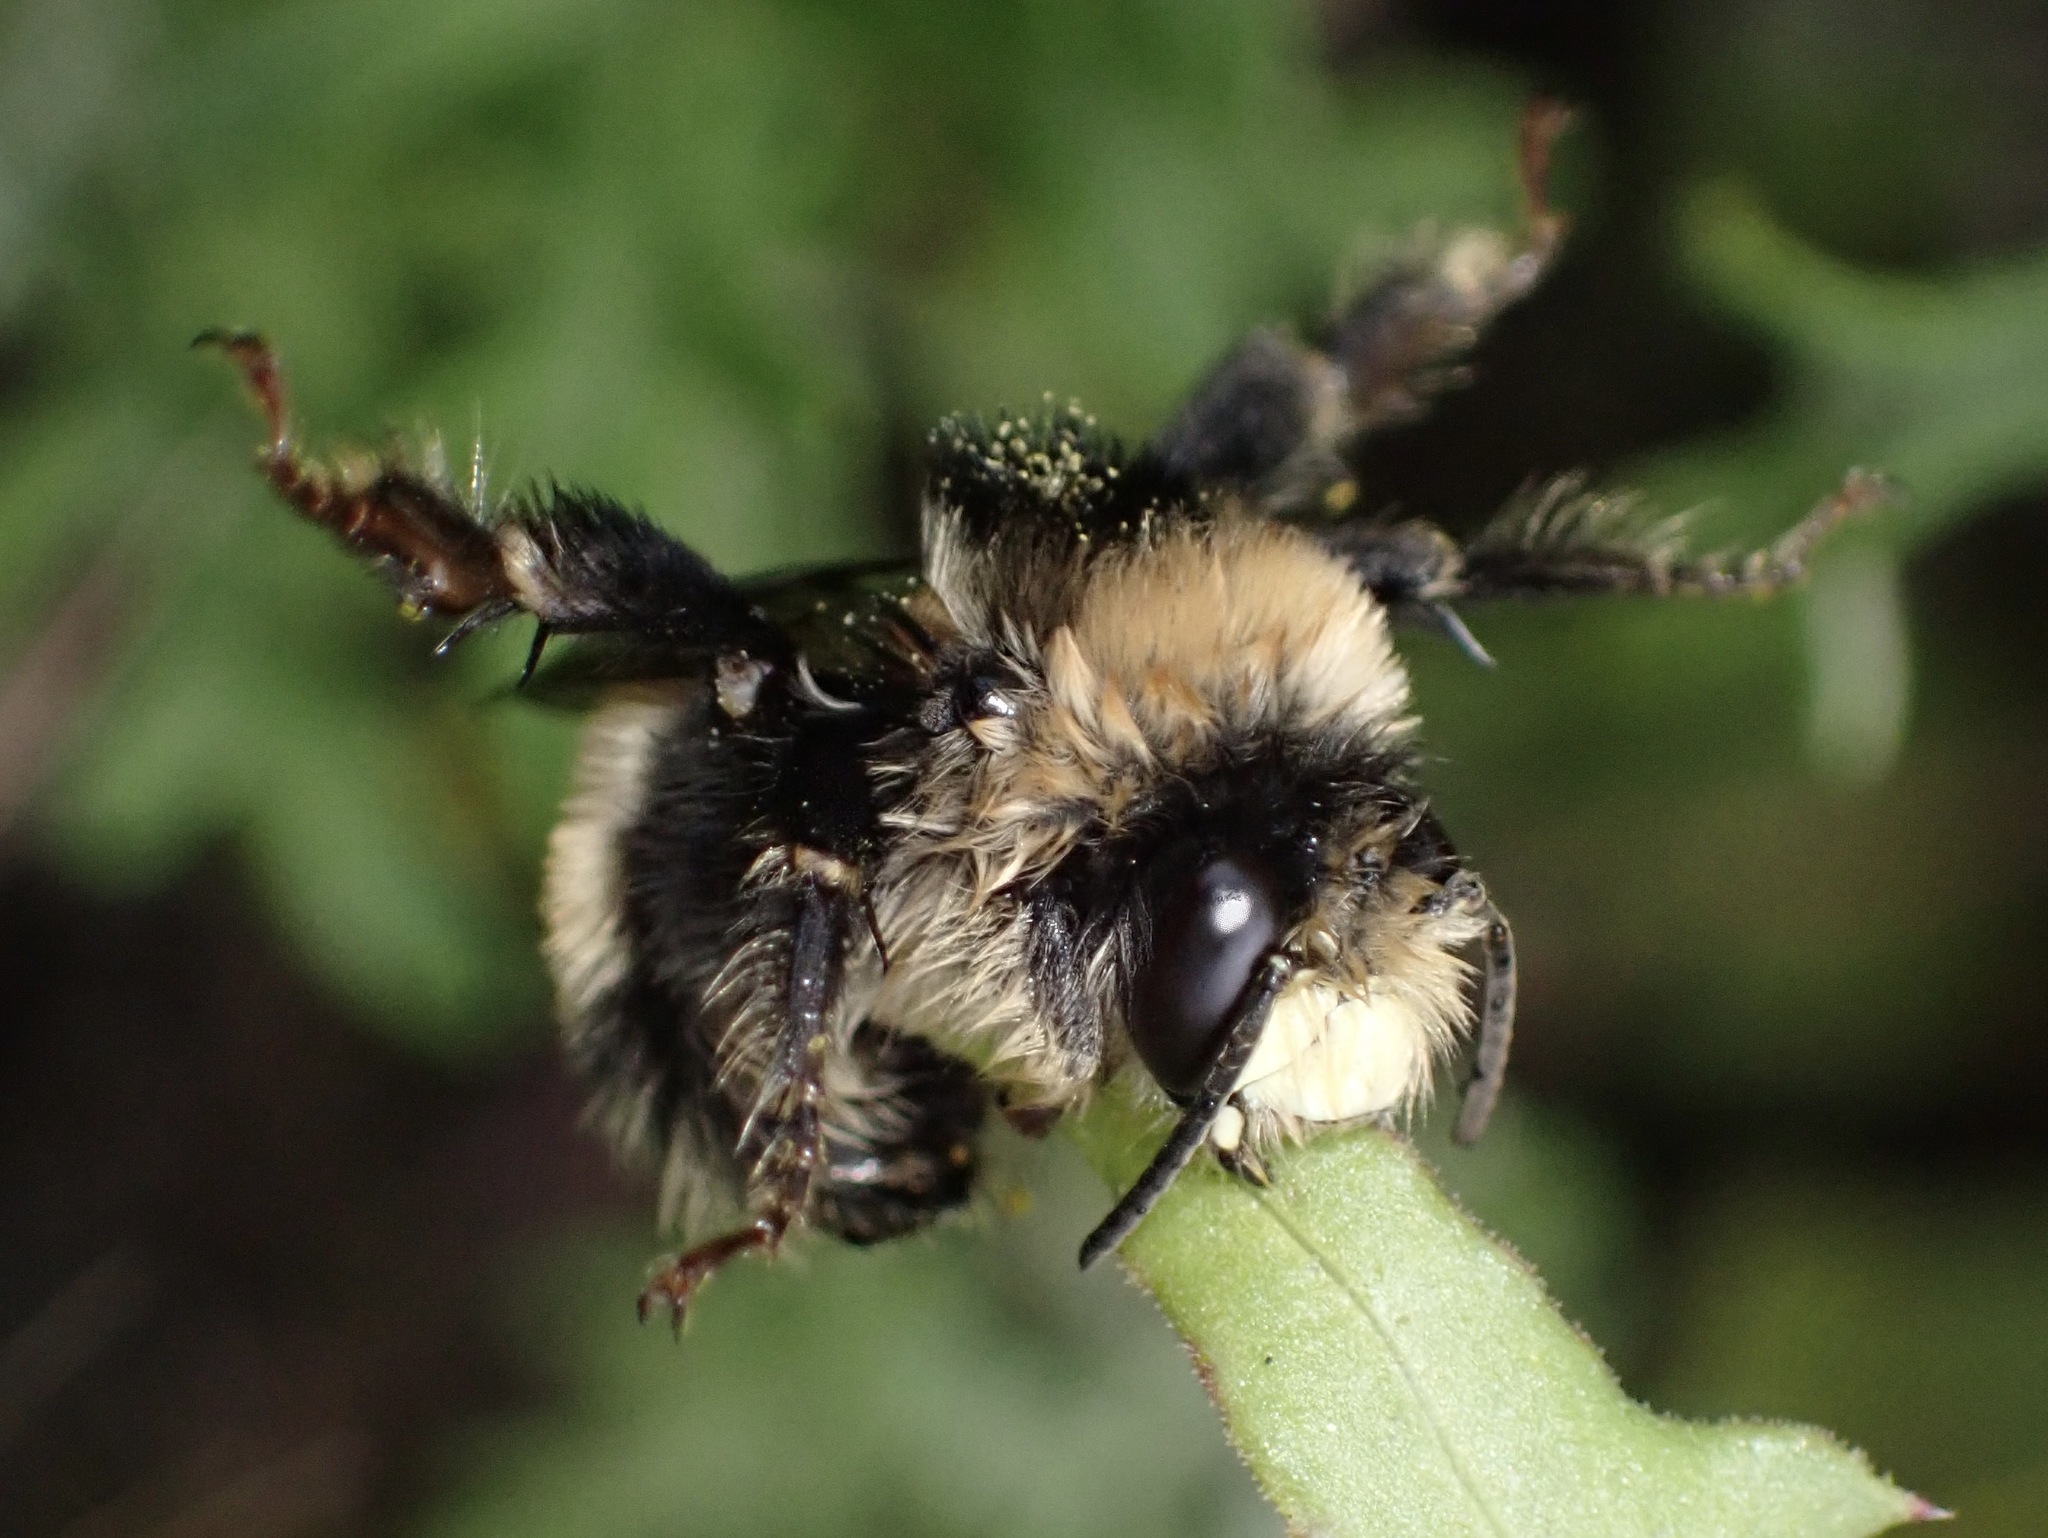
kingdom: Animalia
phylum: Arthropoda
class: Insecta
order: Hymenoptera
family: Apidae
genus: Anthophora
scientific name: Anthophora bomboides
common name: Bumble-bee-mimic digger bee
